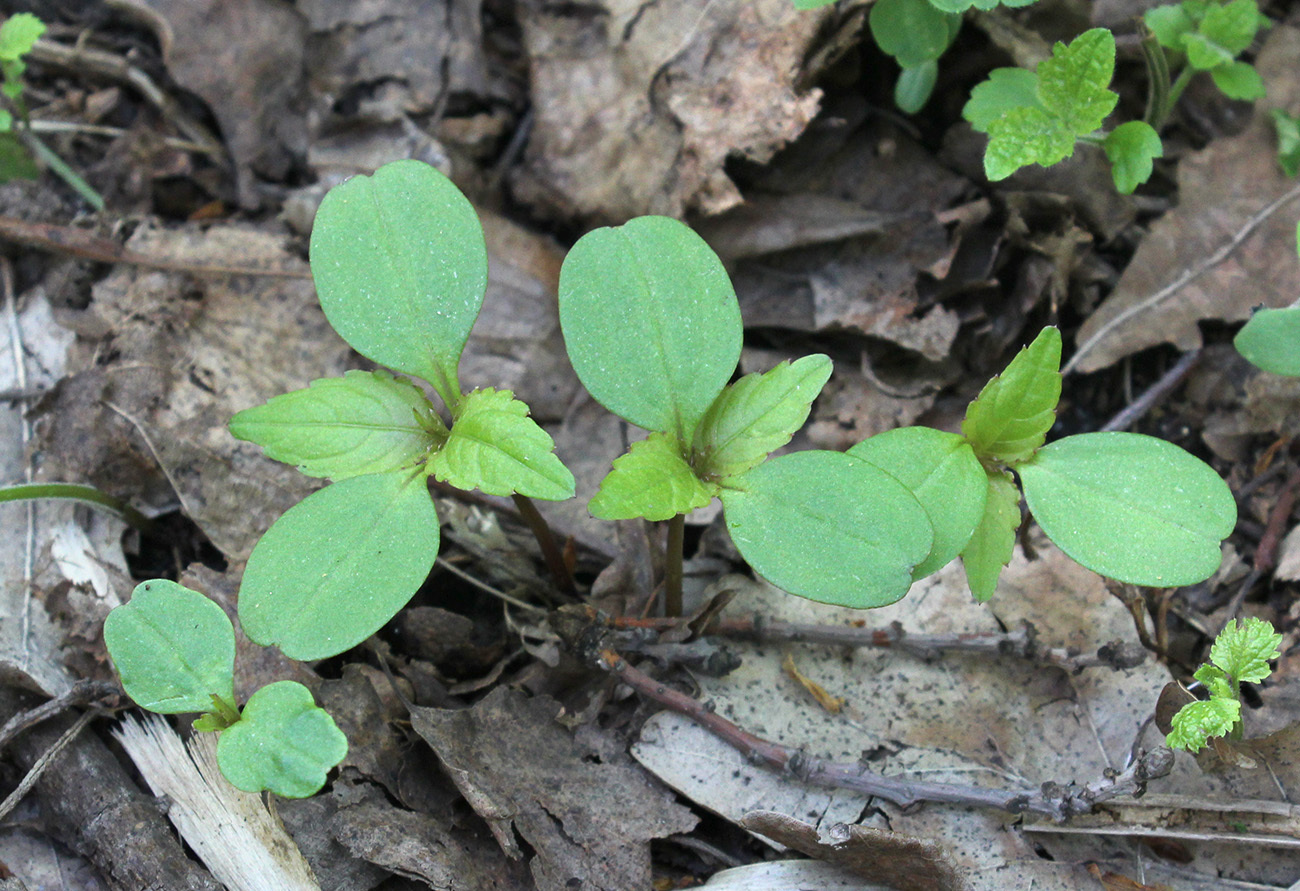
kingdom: Plantae
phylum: Tracheophyta
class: Magnoliopsida
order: Ericales
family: Balsaminaceae
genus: Impatiens
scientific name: Impatiens parviflora
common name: Small balsam
